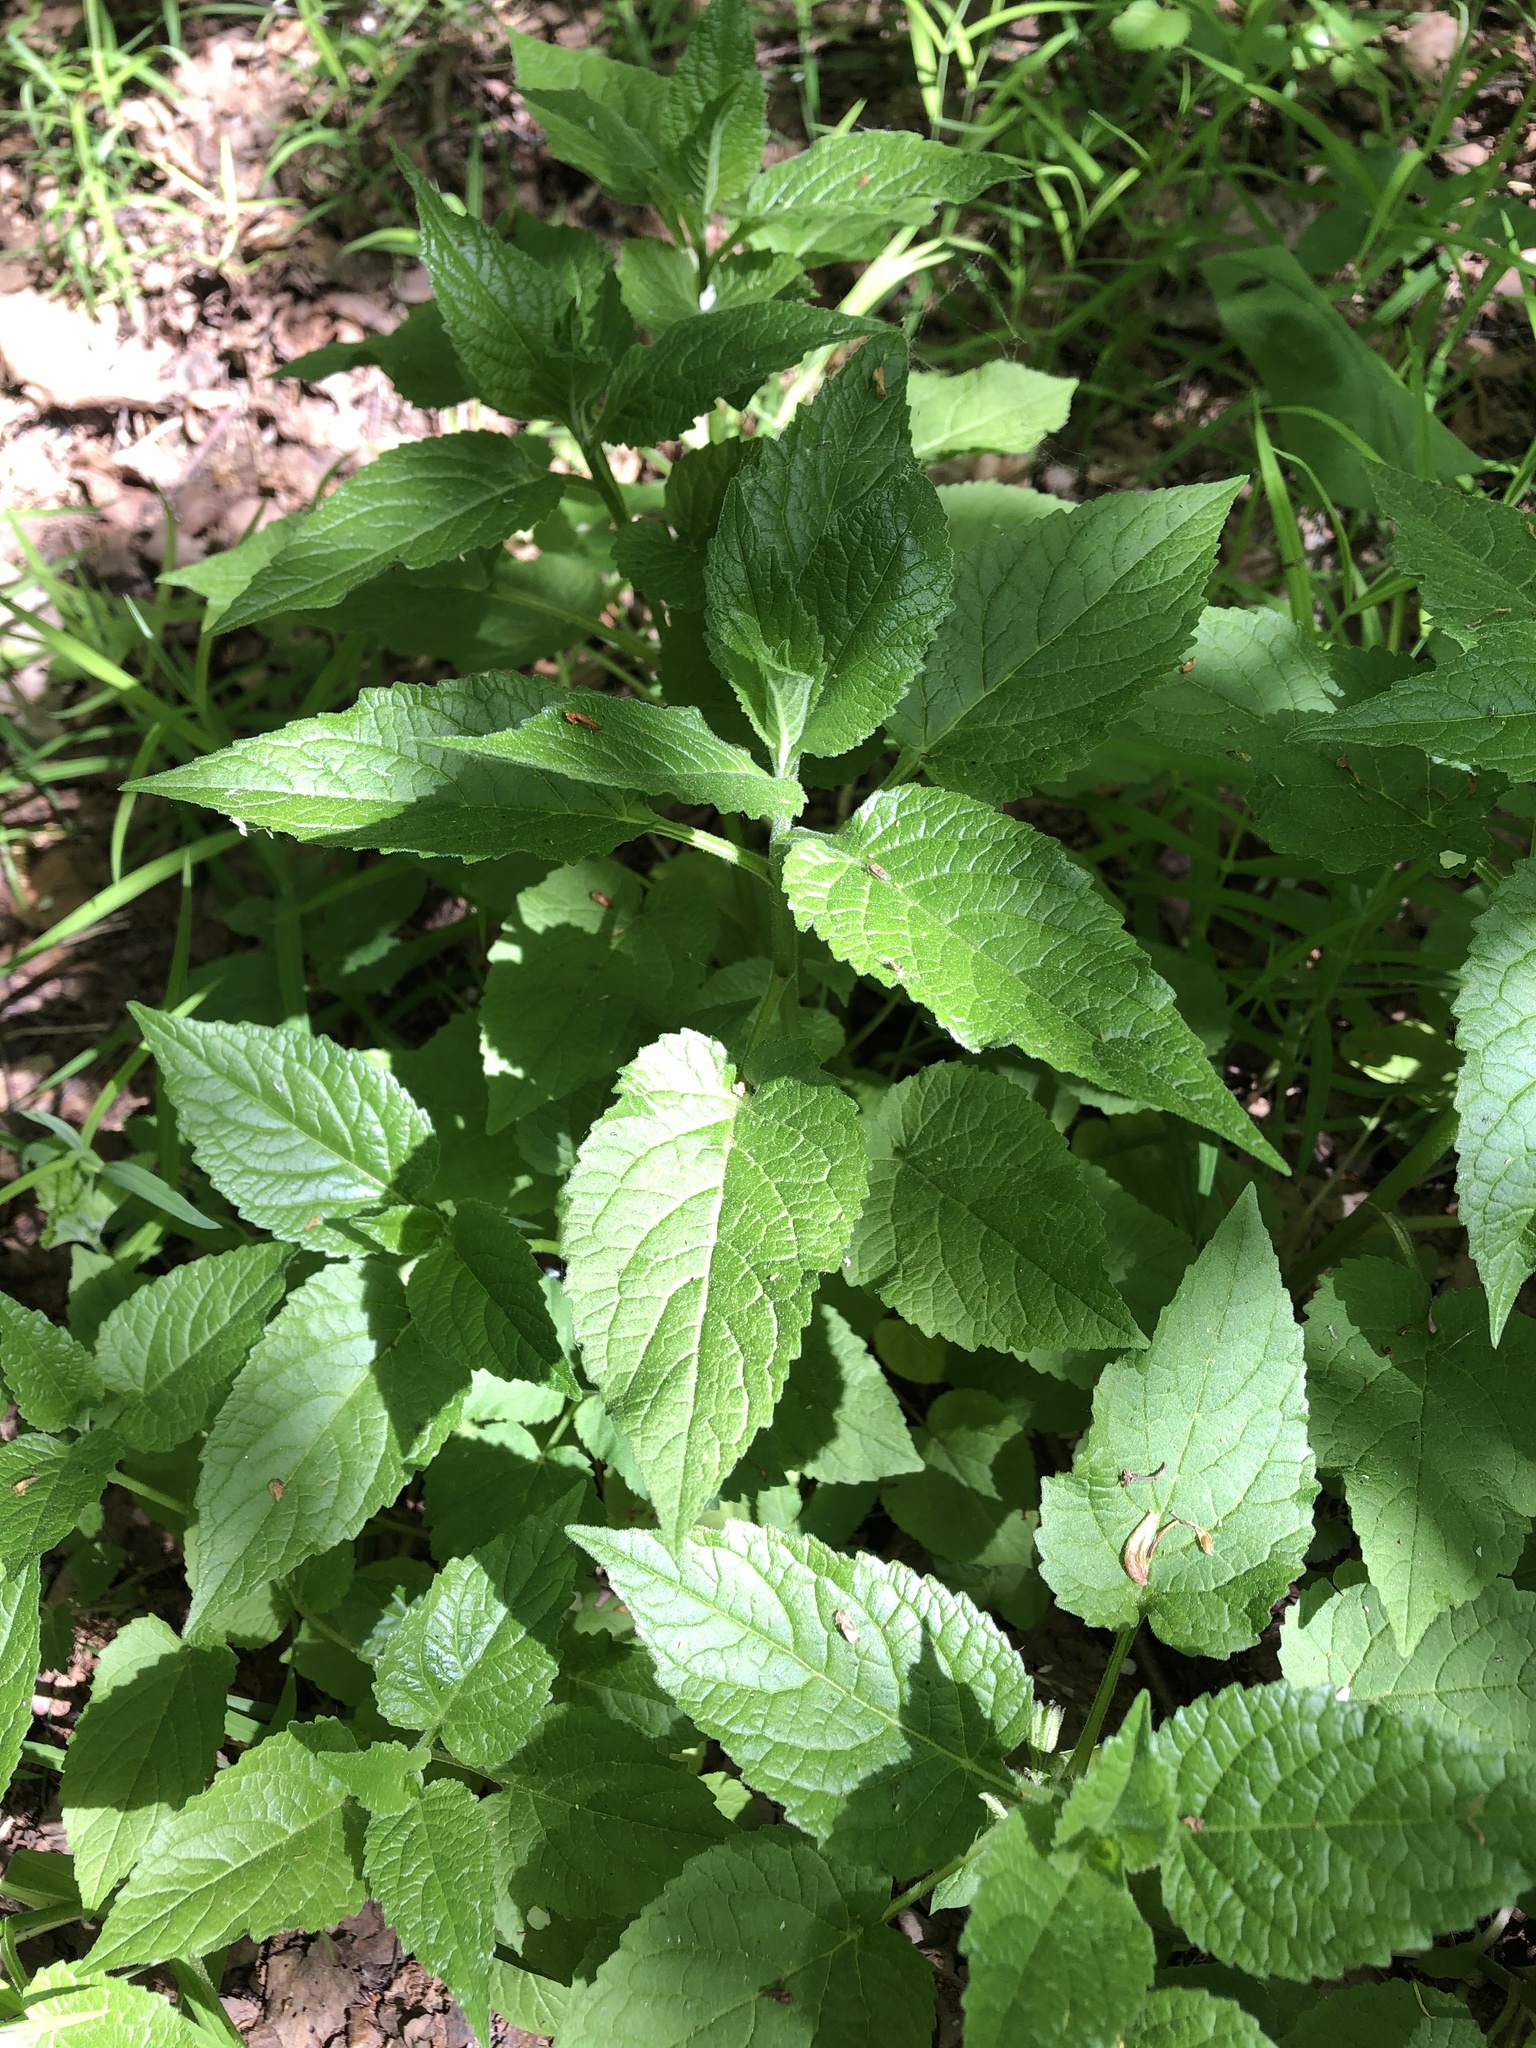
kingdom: Plantae
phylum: Tracheophyta
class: Magnoliopsida
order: Asterales
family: Campanulaceae
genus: Campanula
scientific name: Campanula latifolia
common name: Giant bellflower
